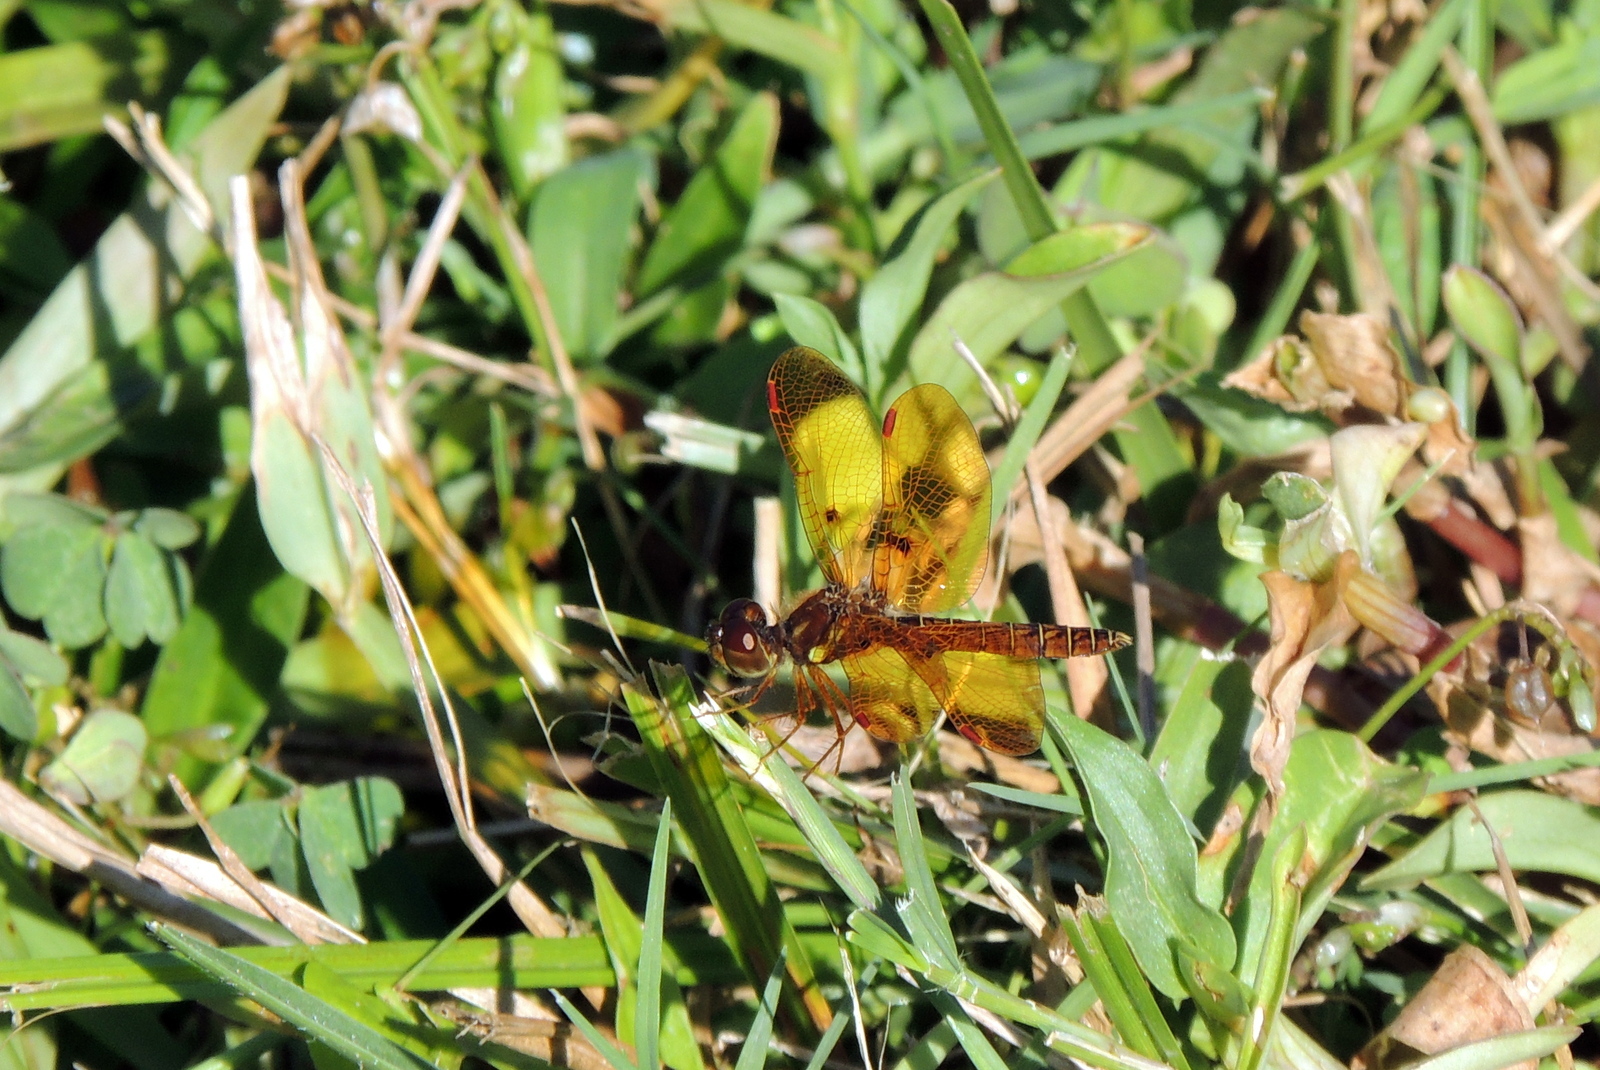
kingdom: Animalia
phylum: Arthropoda
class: Insecta
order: Odonata
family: Libellulidae
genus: Perithemis
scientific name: Perithemis tenera
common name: Eastern amberwing
